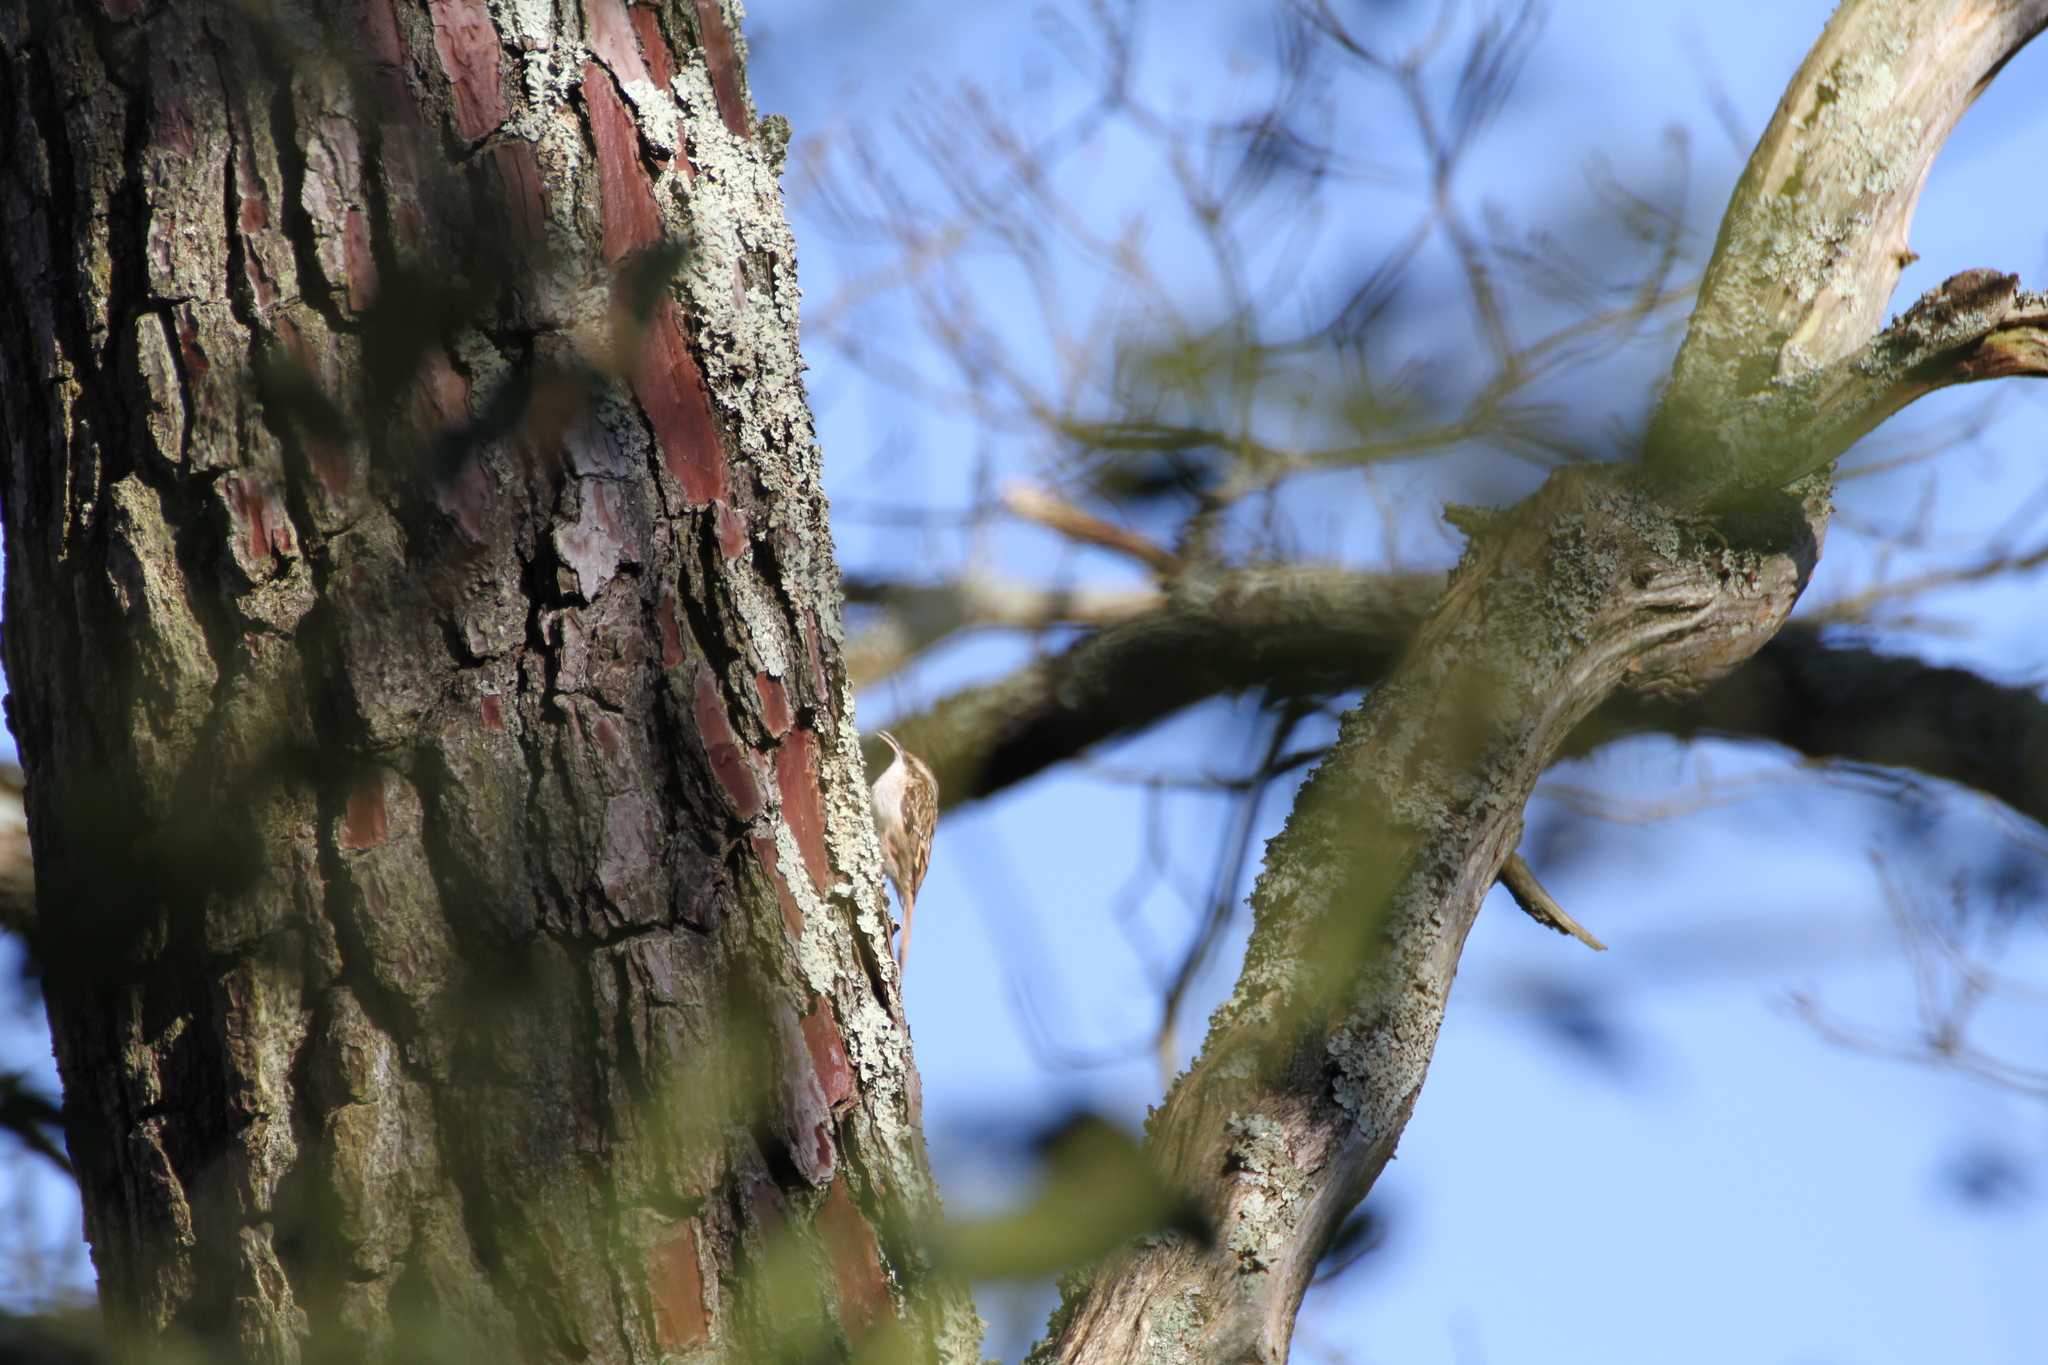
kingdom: Animalia
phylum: Chordata
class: Aves
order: Passeriformes
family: Certhiidae
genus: Certhia
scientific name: Certhia brachydactyla
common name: Short-toed treecreeper
